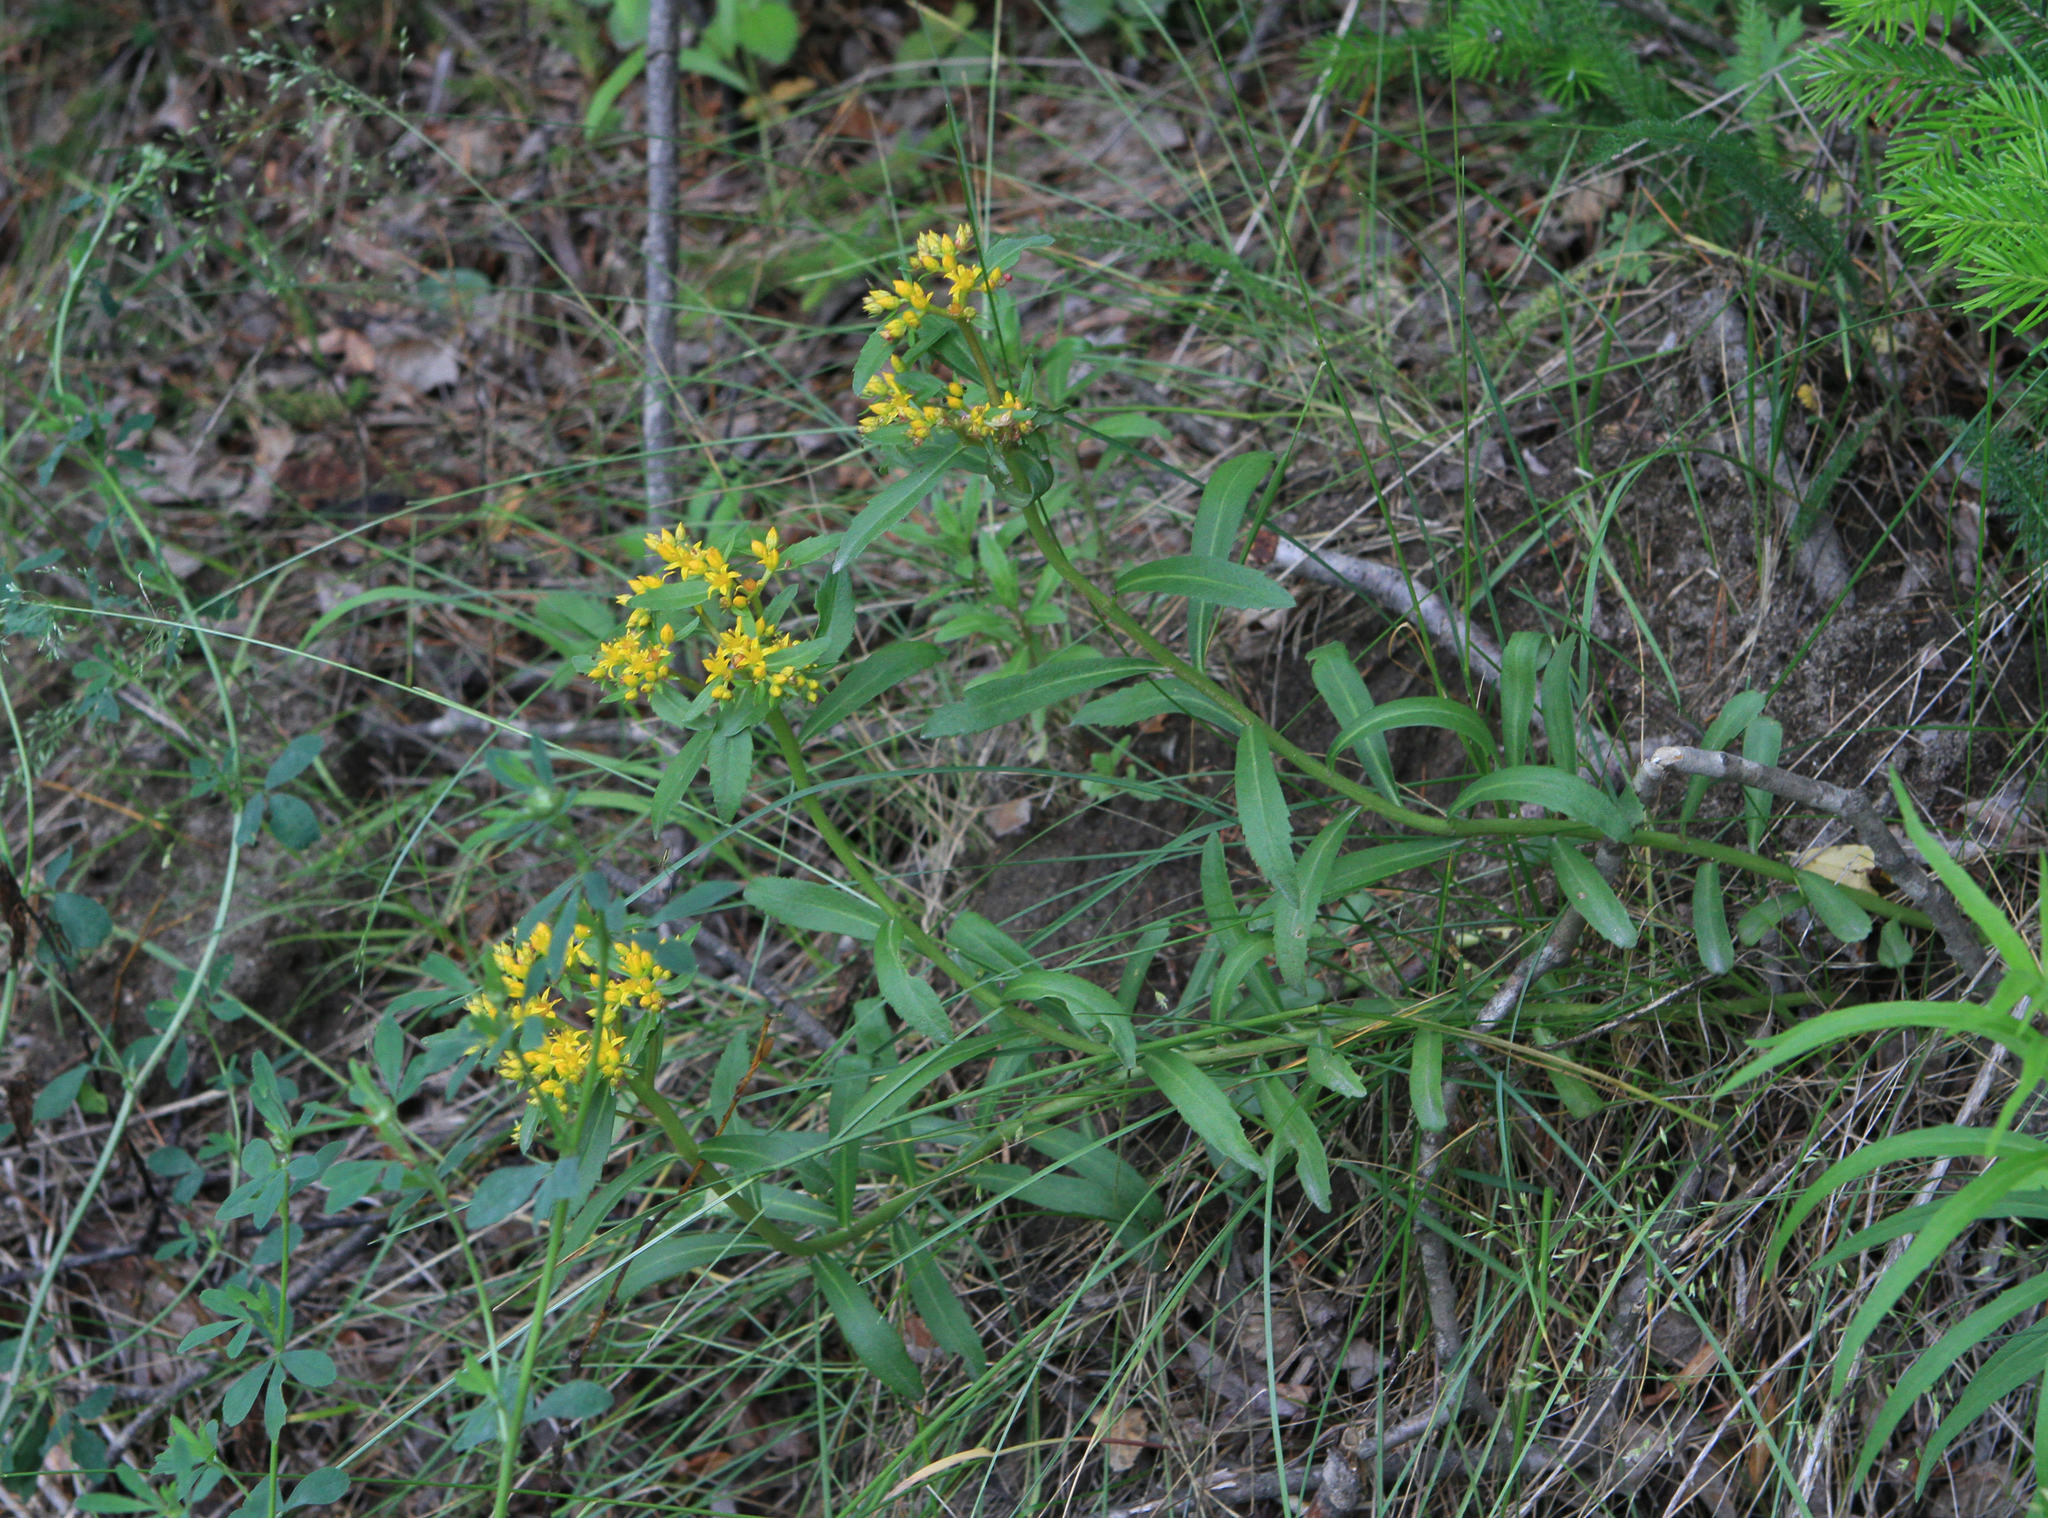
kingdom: Plantae
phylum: Tracheophyta
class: Magnoliopsida
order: Saxifragales
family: Crassulaceae
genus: Phedimus
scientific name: Phedimus aizoon
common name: Orpin aizoon
